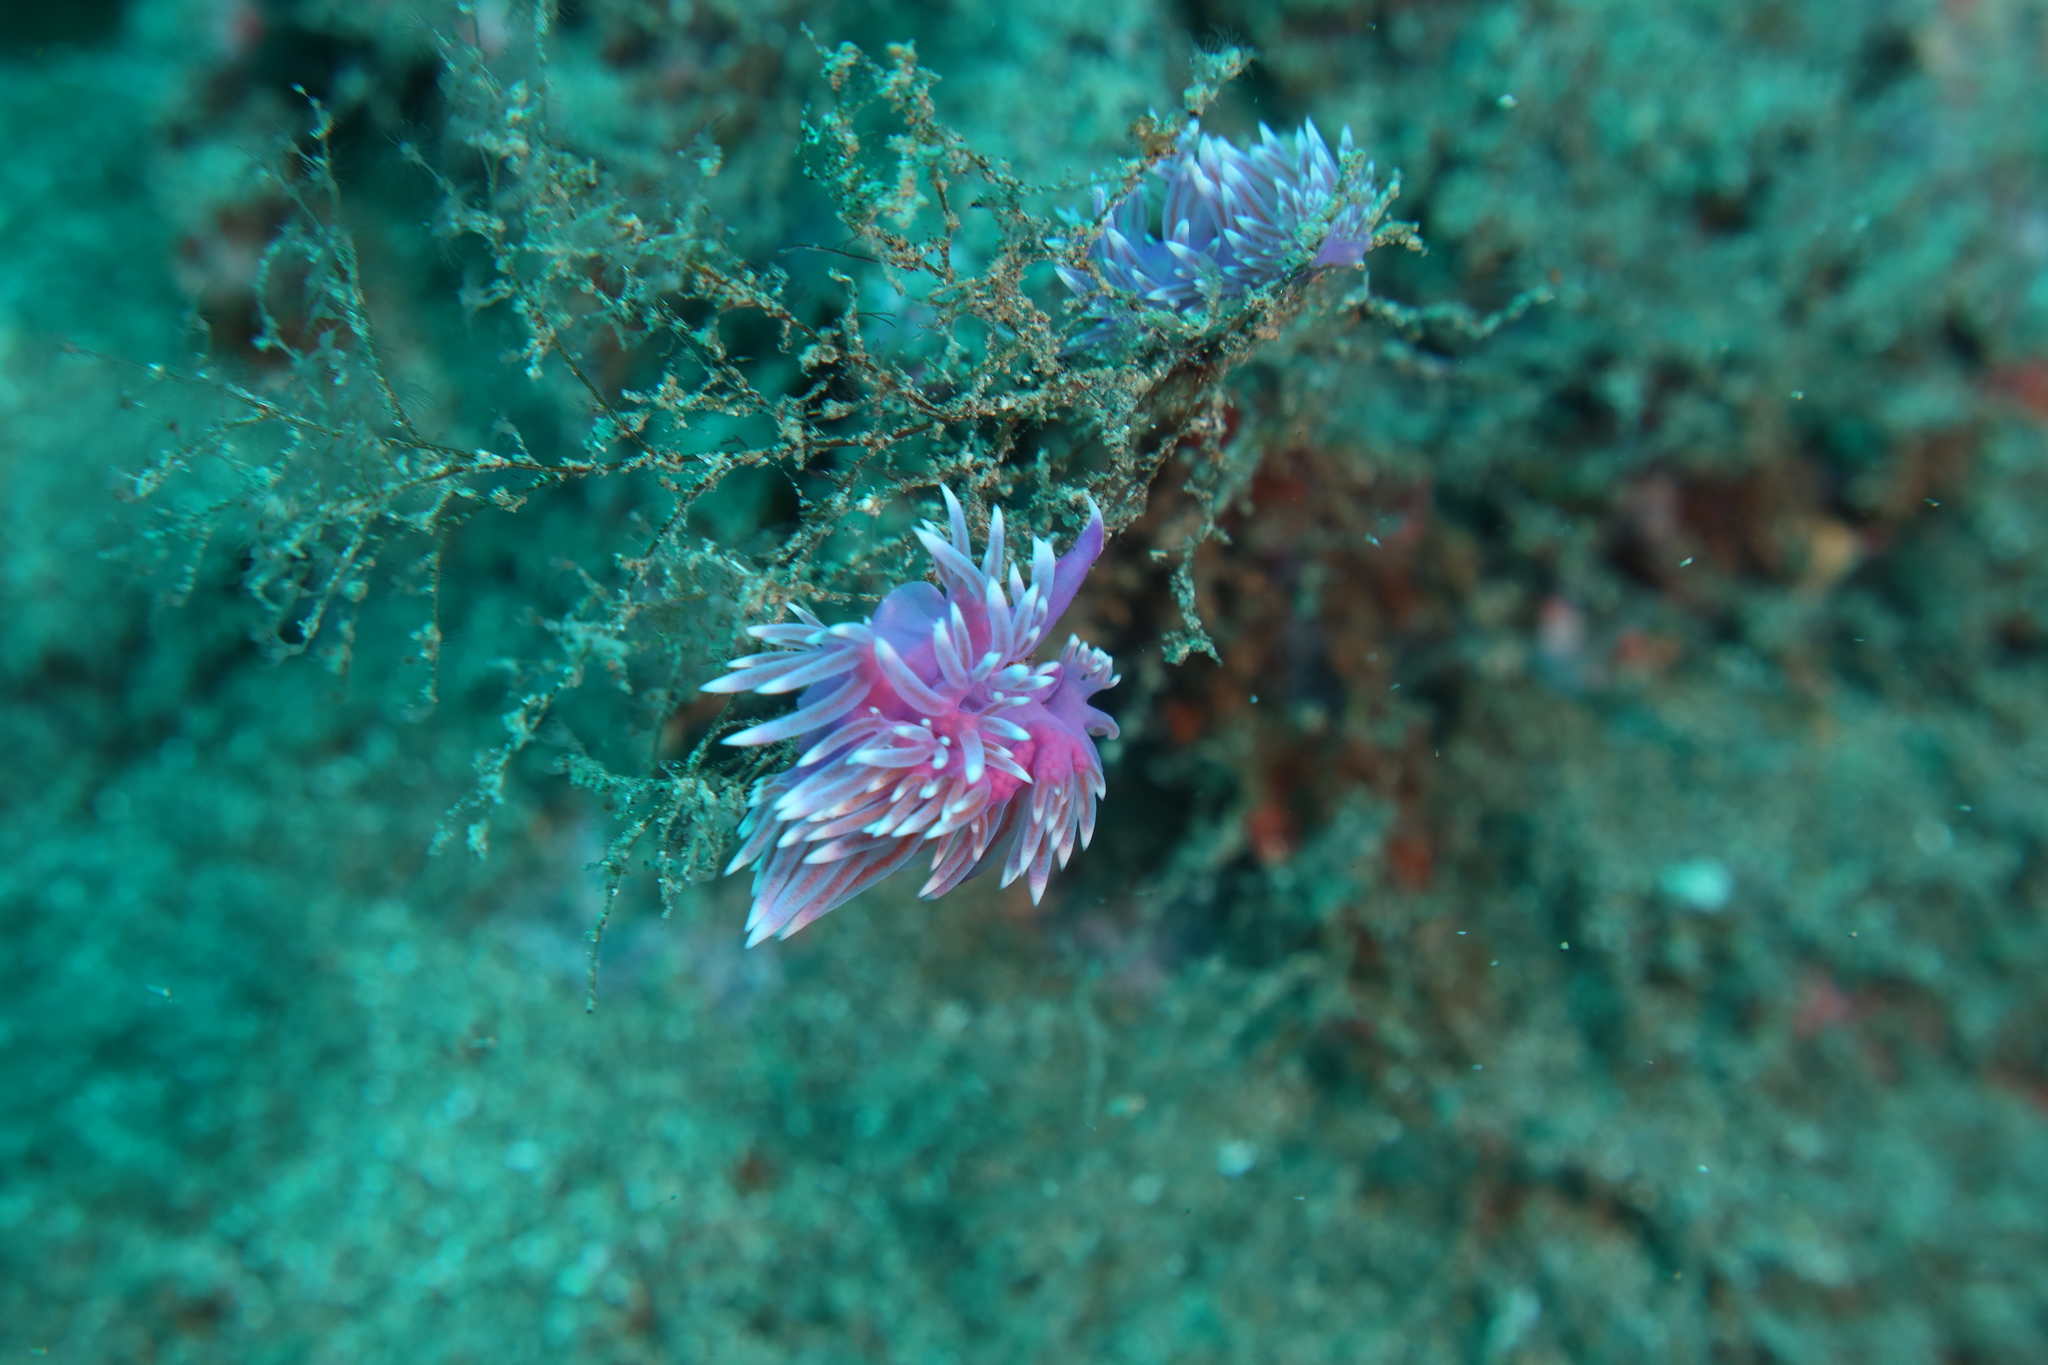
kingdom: Animalia
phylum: Mollusca
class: Gastropoda
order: Nudibranchia
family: Flabellinidae
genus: Flabellina
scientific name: Flabellina affinis
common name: Mediterranean violet aeolid
